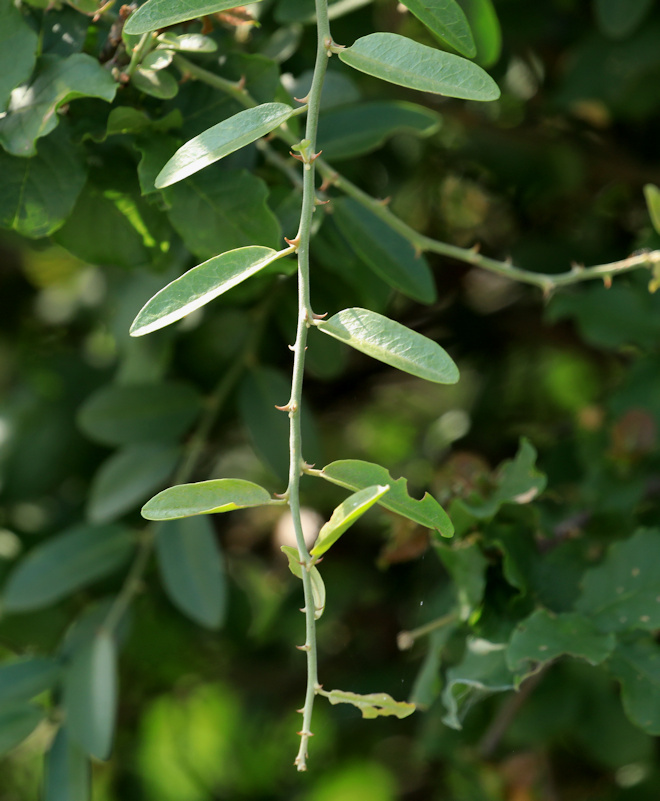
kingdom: Plantae
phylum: Tracheophyta
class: Magnoliopsida
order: Brassicales
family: Capparaceae
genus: Capparis
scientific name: Capparis tomentosa
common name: African caper
